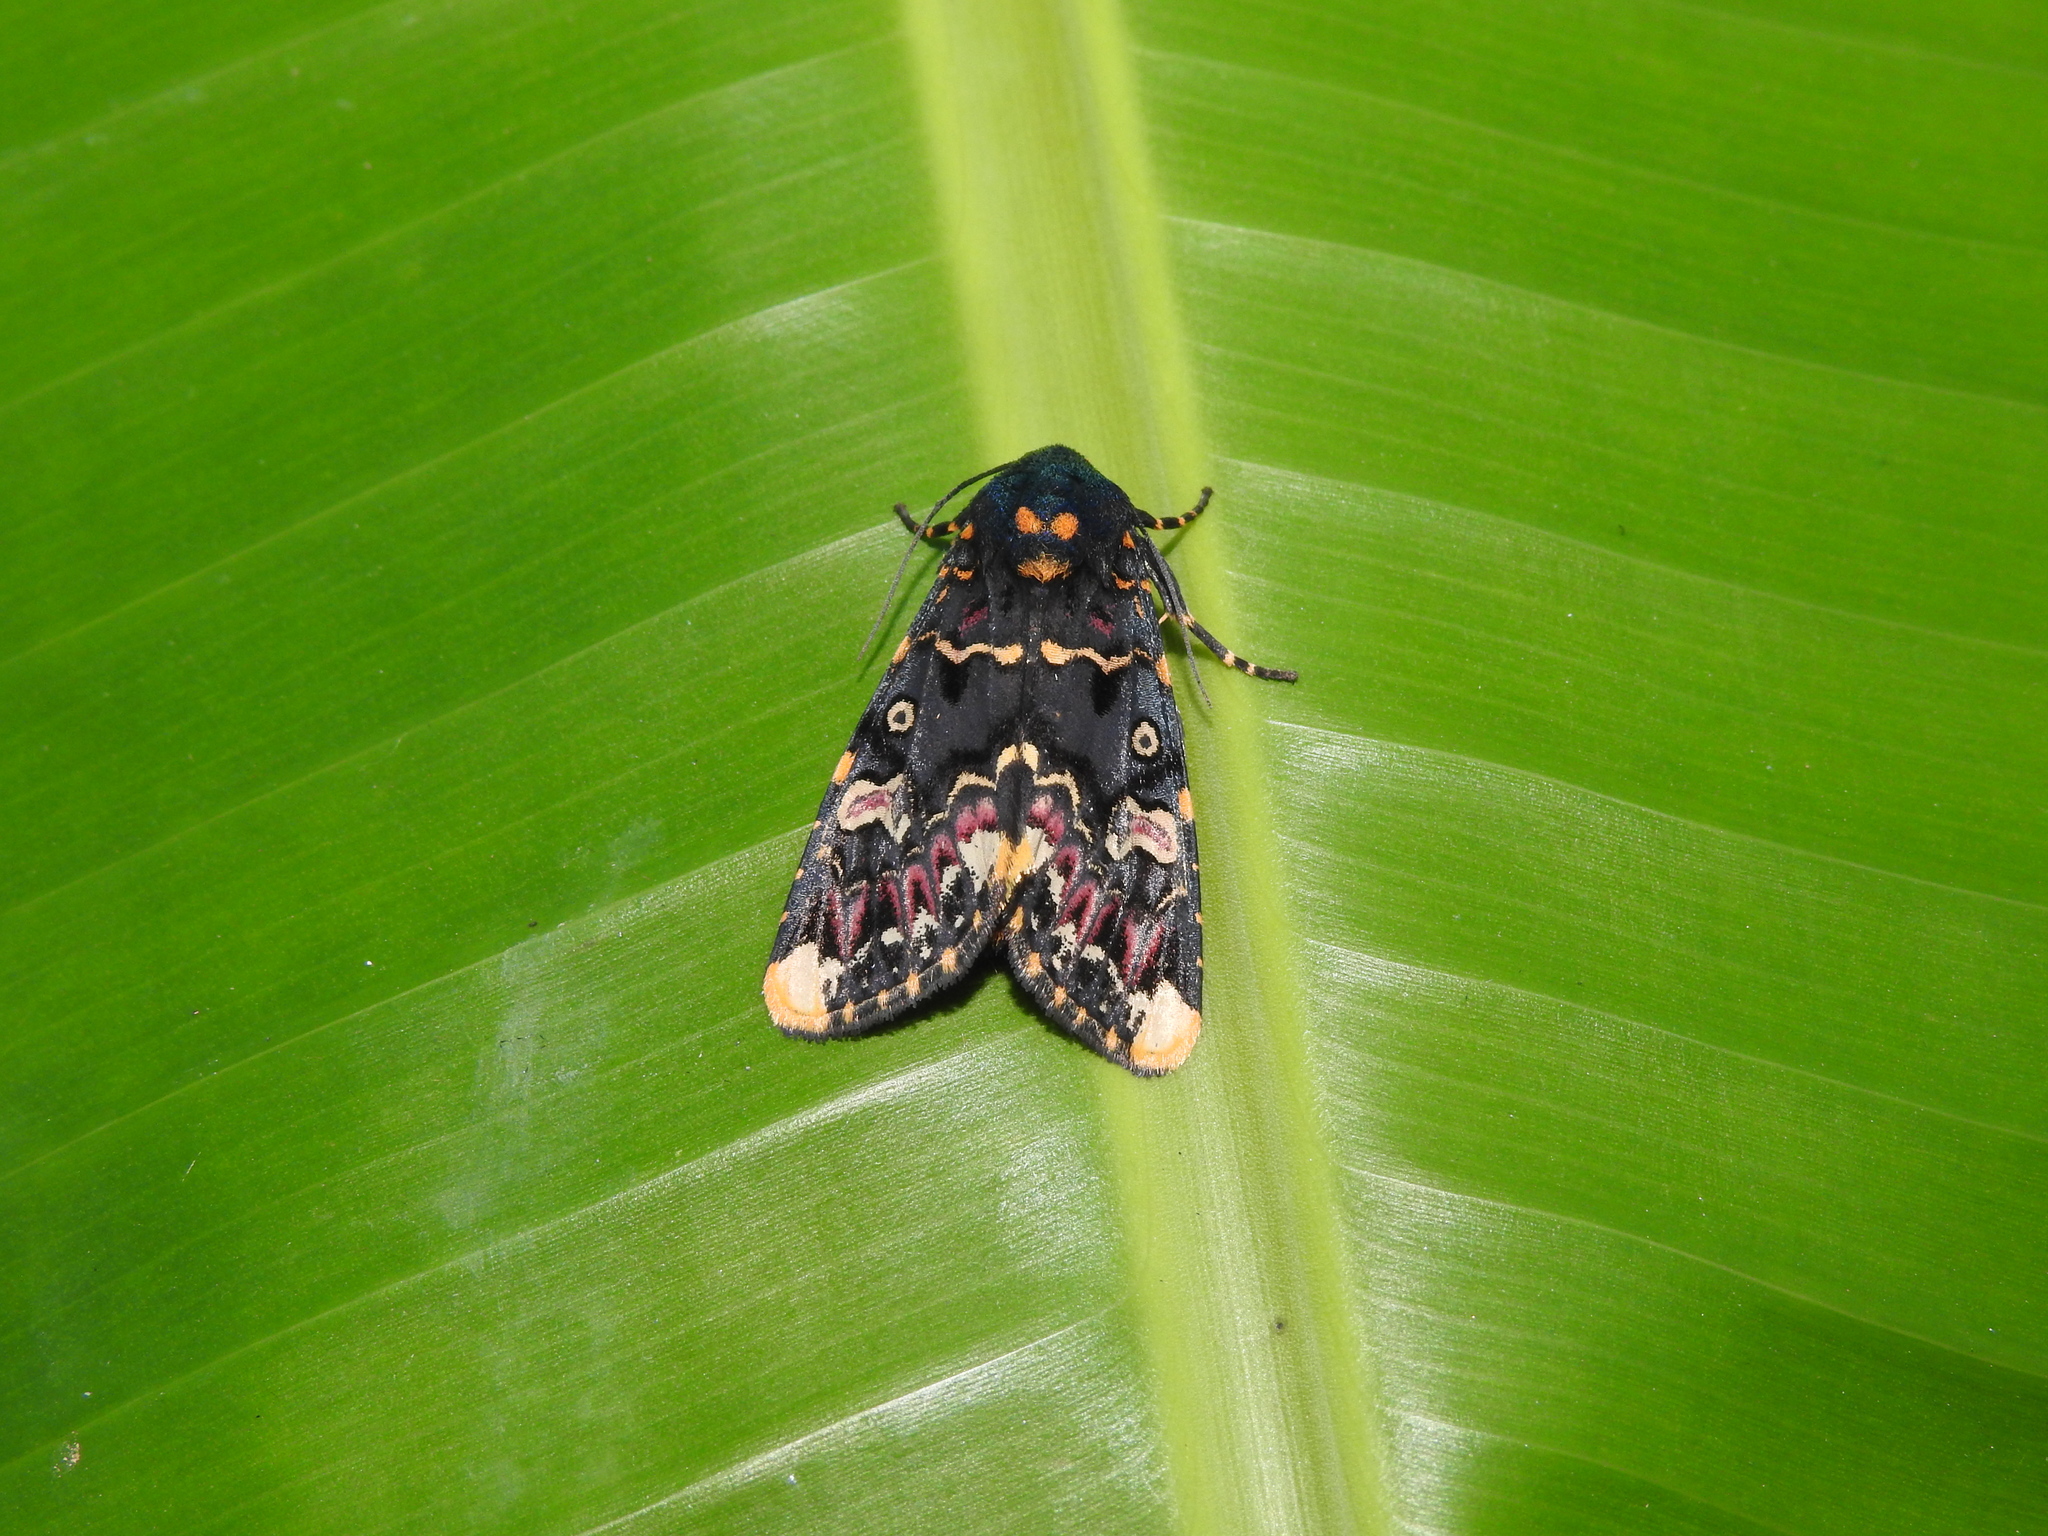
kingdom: Animalia
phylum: Arthropoda
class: Insecta
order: Lepidoptera
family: Noctuidae
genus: Polytela
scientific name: Polytela gloriosae
